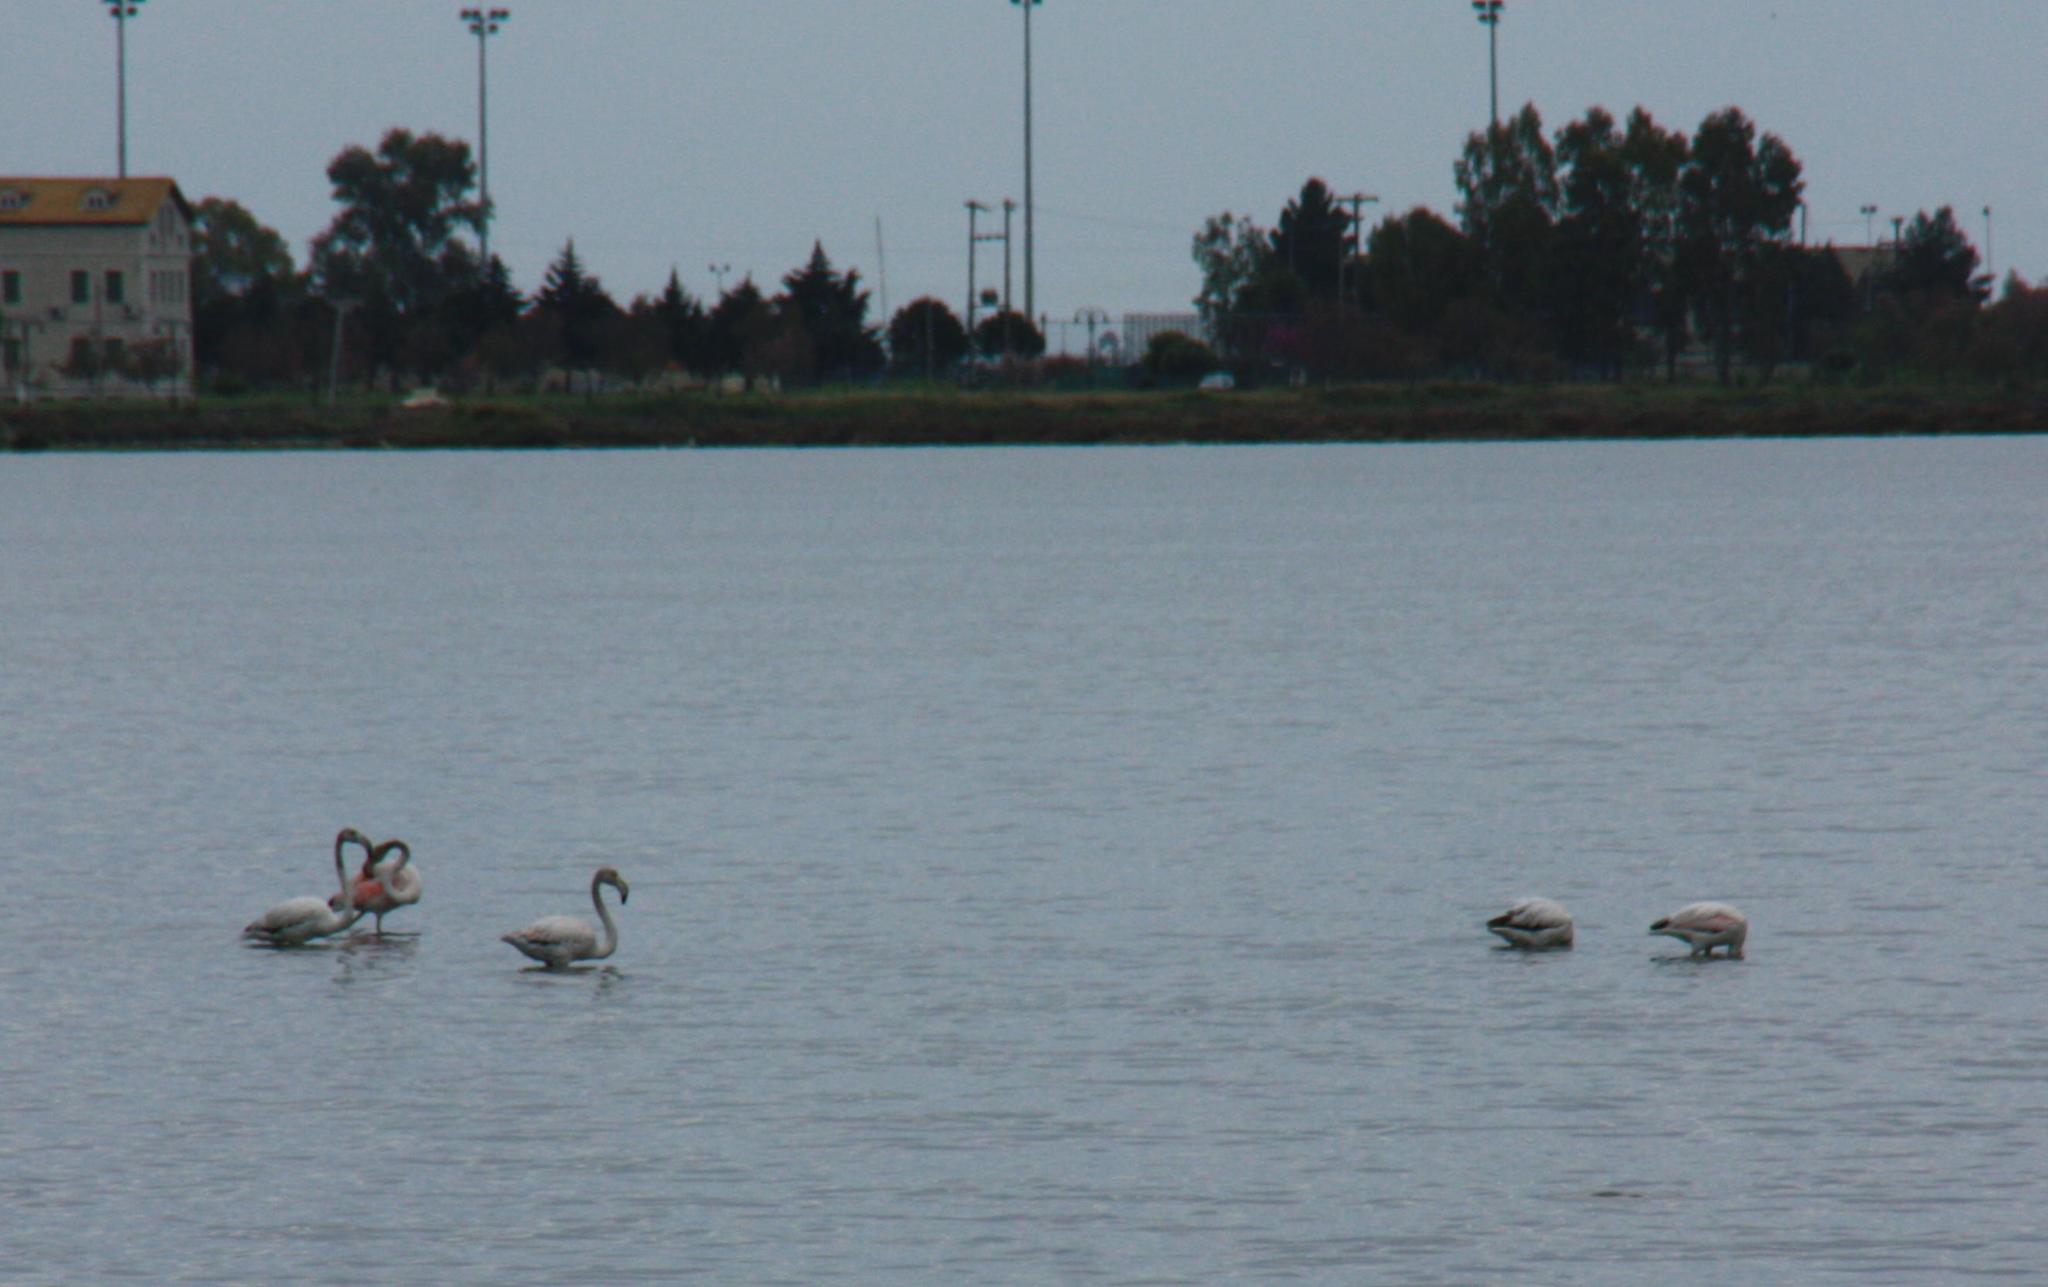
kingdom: Animalia
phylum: Chordata
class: Aves
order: Phoenicopteriformes
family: Phoenicopteridae
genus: Phoenicopterus
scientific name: Phoenicopterus roseus
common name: Greater flamingo
